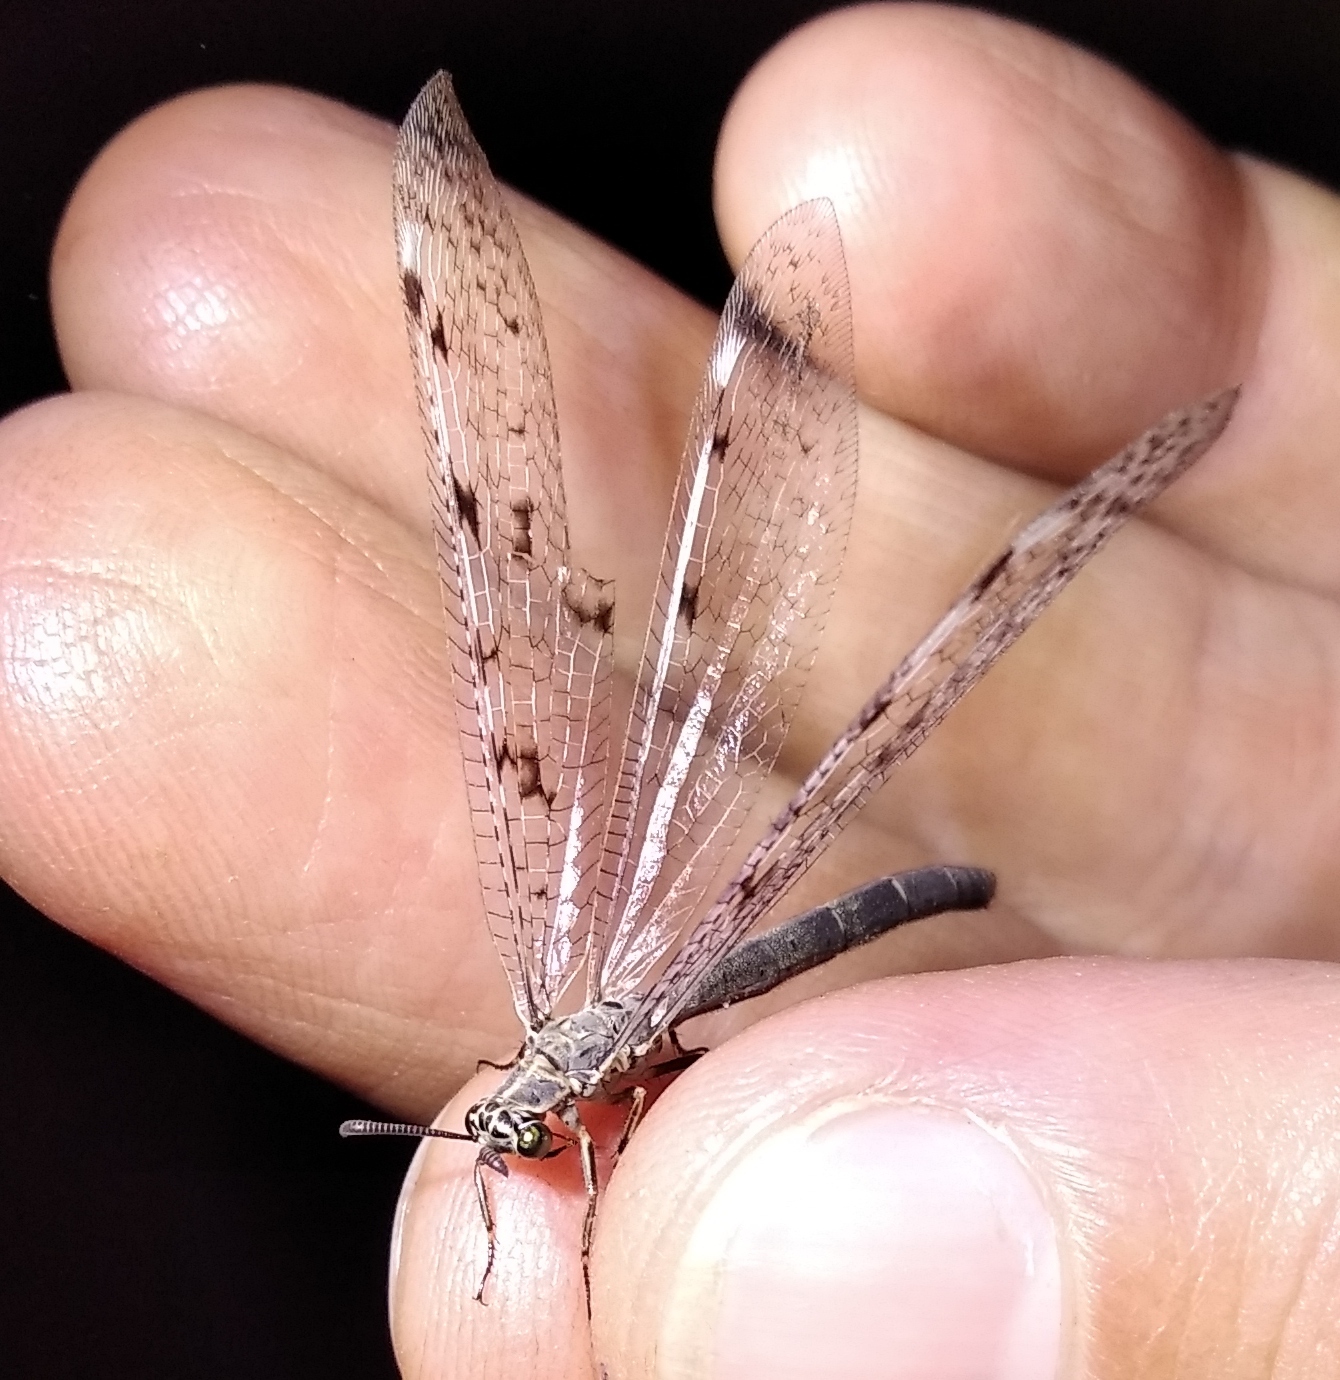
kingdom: Animalia
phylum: Arthropoda
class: Insecta
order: Neuroptera
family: Myrmeleontidae
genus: Euroleon
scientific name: Euroleon nostras
